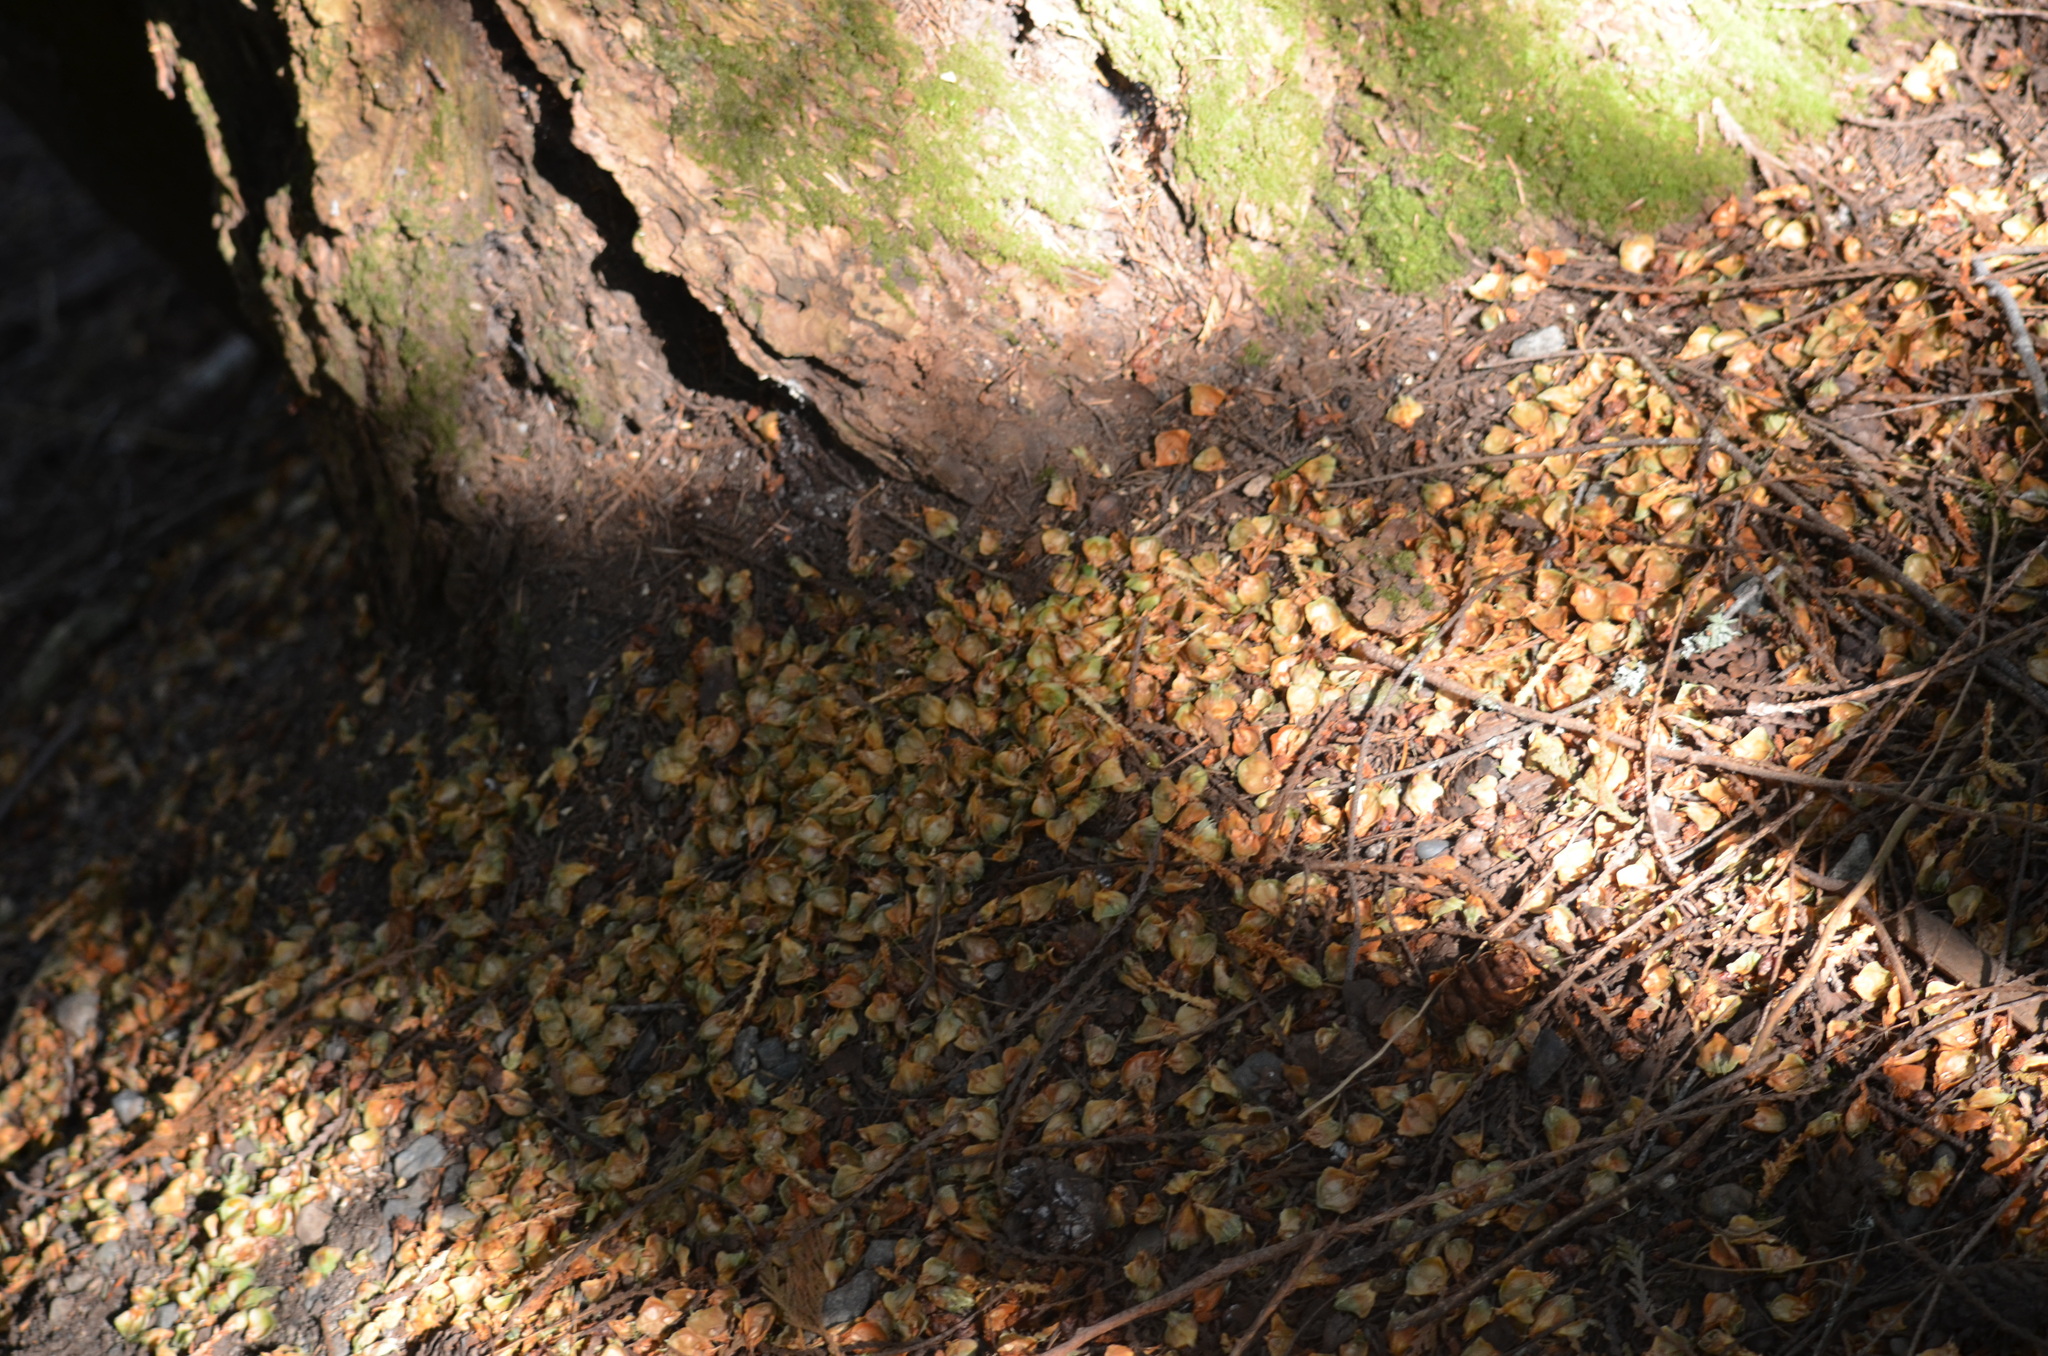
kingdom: Animalia
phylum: Chordata
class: Mammalia
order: Rodentia
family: Sciuridae
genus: Tamiasciurus
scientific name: Tamiasciurus hudsonicus
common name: Red squirrel
